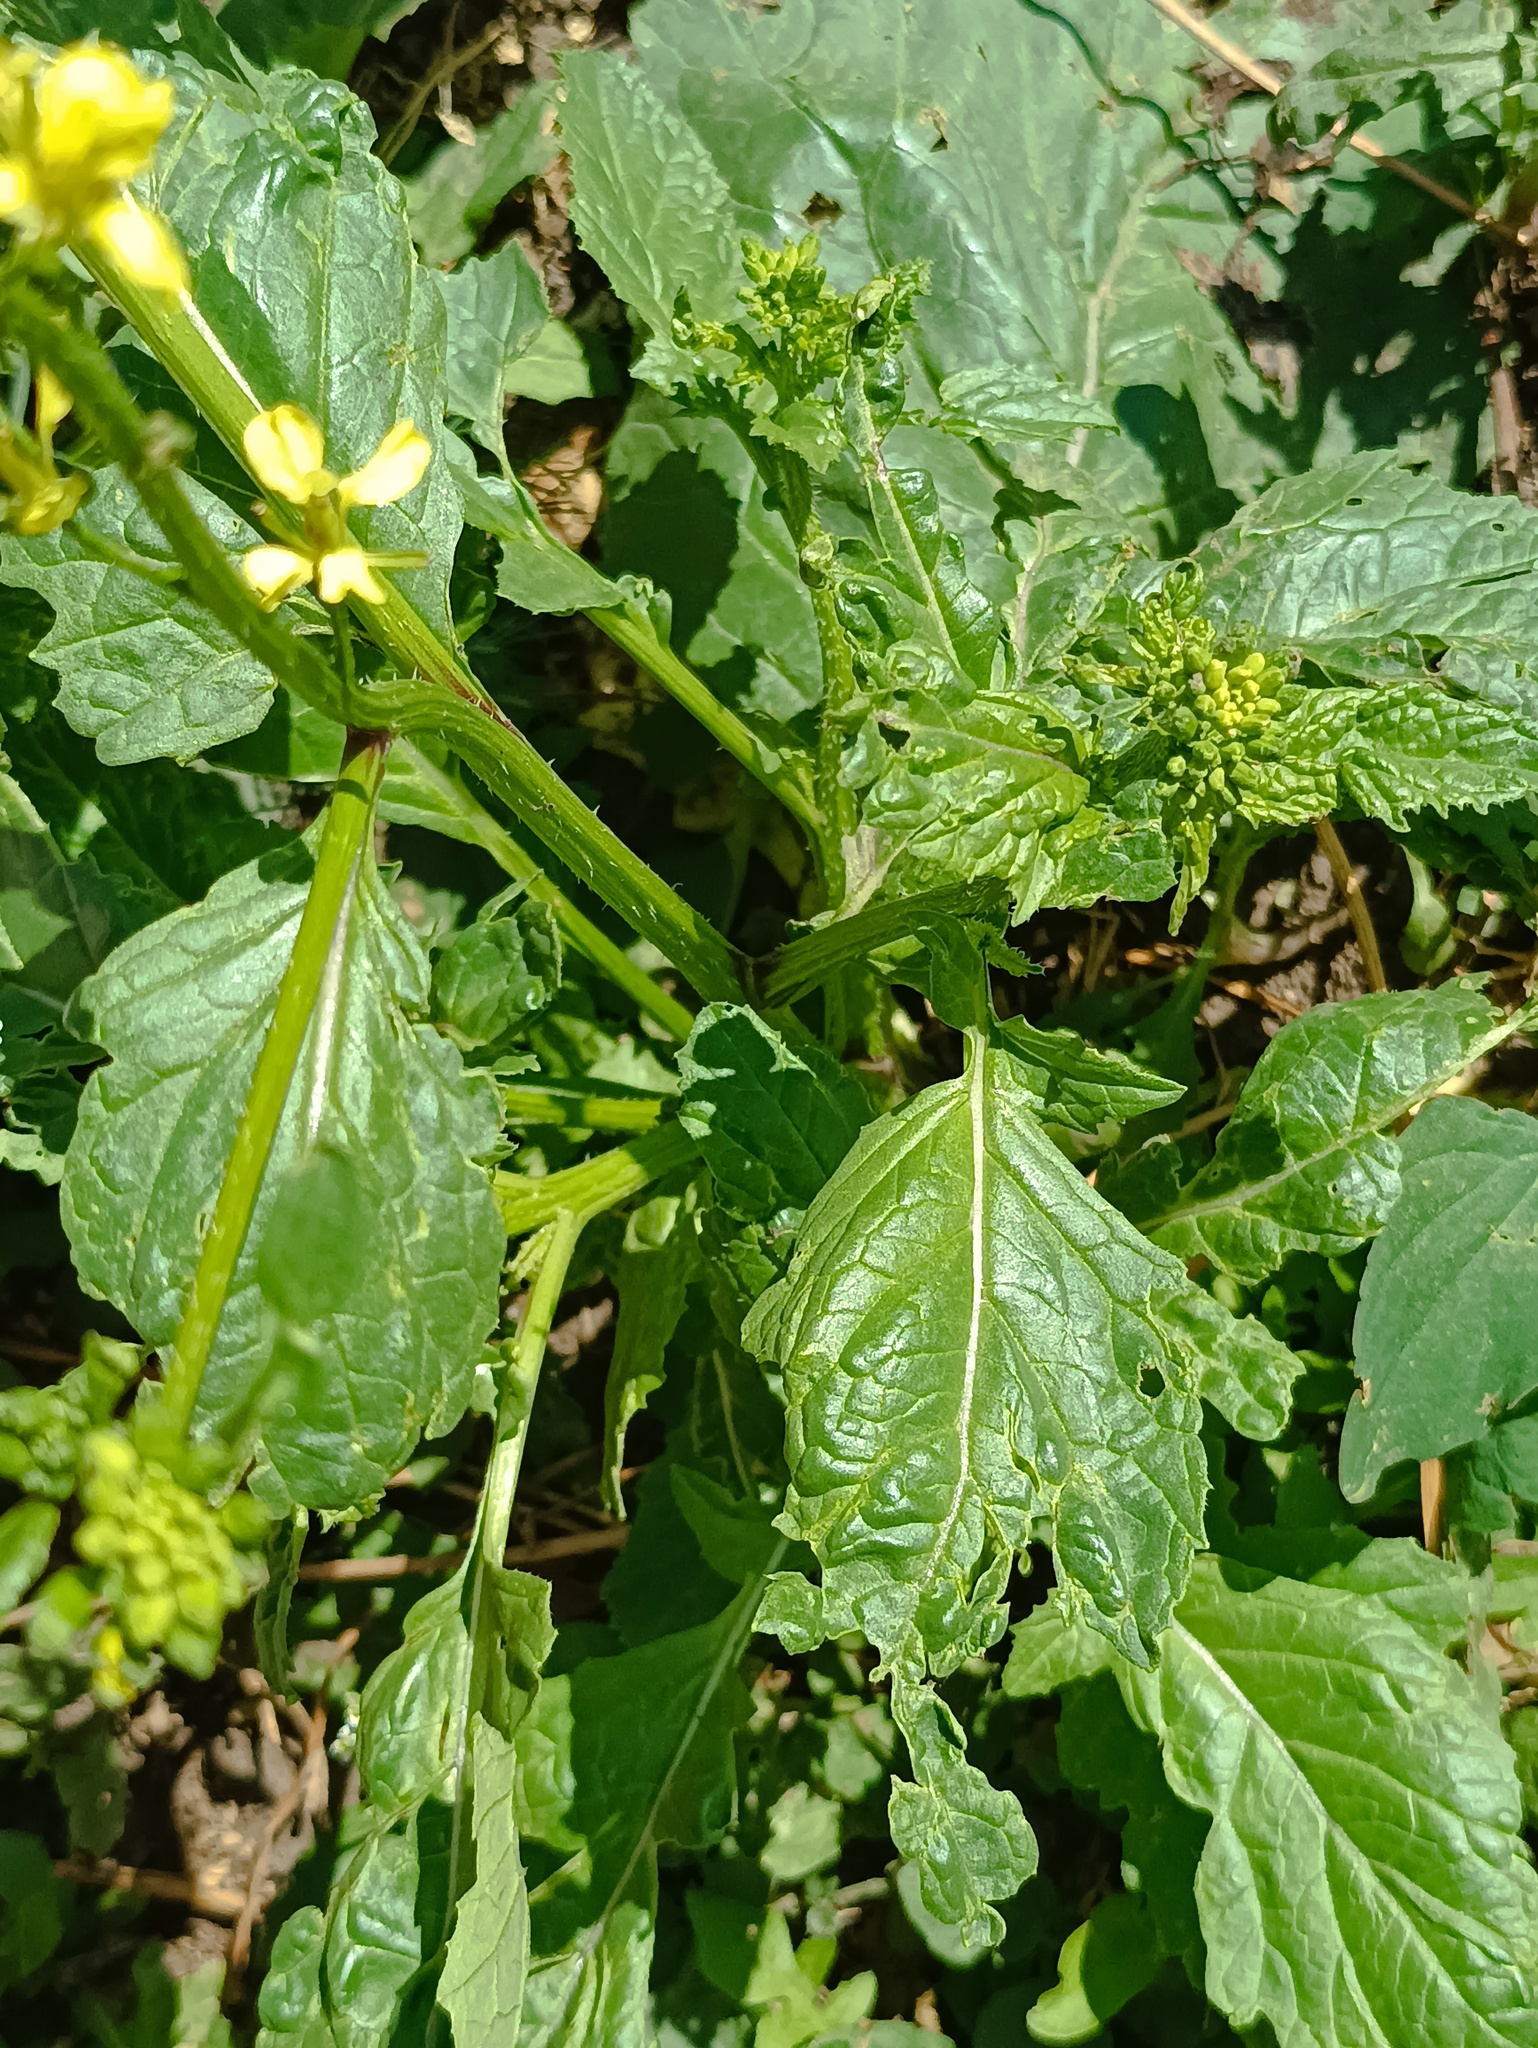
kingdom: Plantae
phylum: Tracheophyta
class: Magnoliopsida
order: Brassicales
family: Brassicaceae
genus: Sinapis
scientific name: Sinapis arvensis
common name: Charlock
